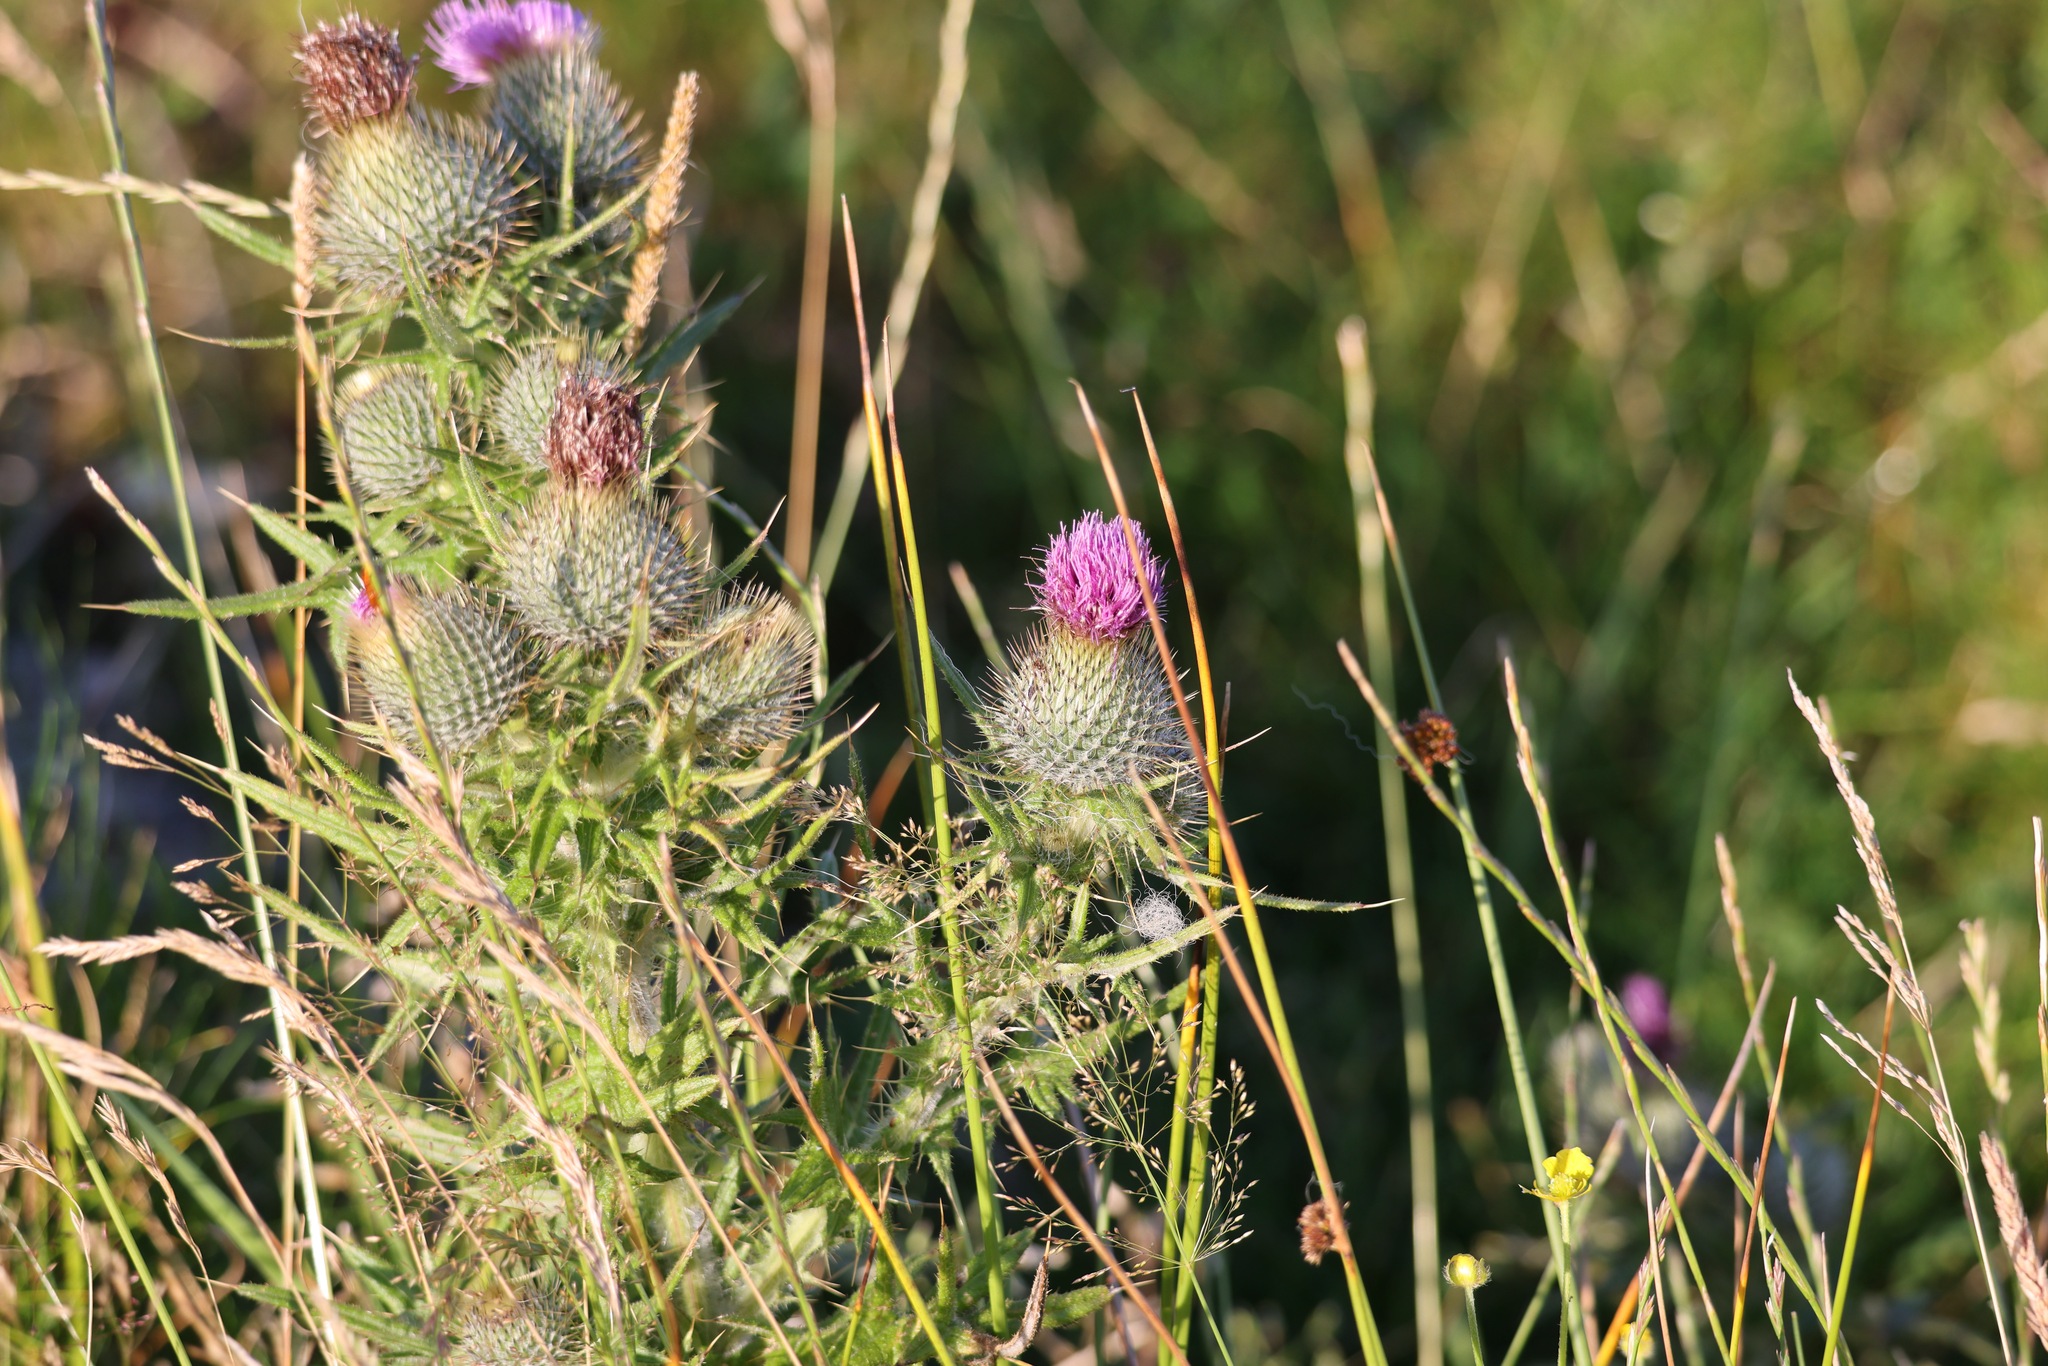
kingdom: Plantae
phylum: Tracheophyta
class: Magnoliopsida
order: Asterales
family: Asteraceae
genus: Cirsium
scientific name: Cirsium vulgare
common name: Bull thistle
